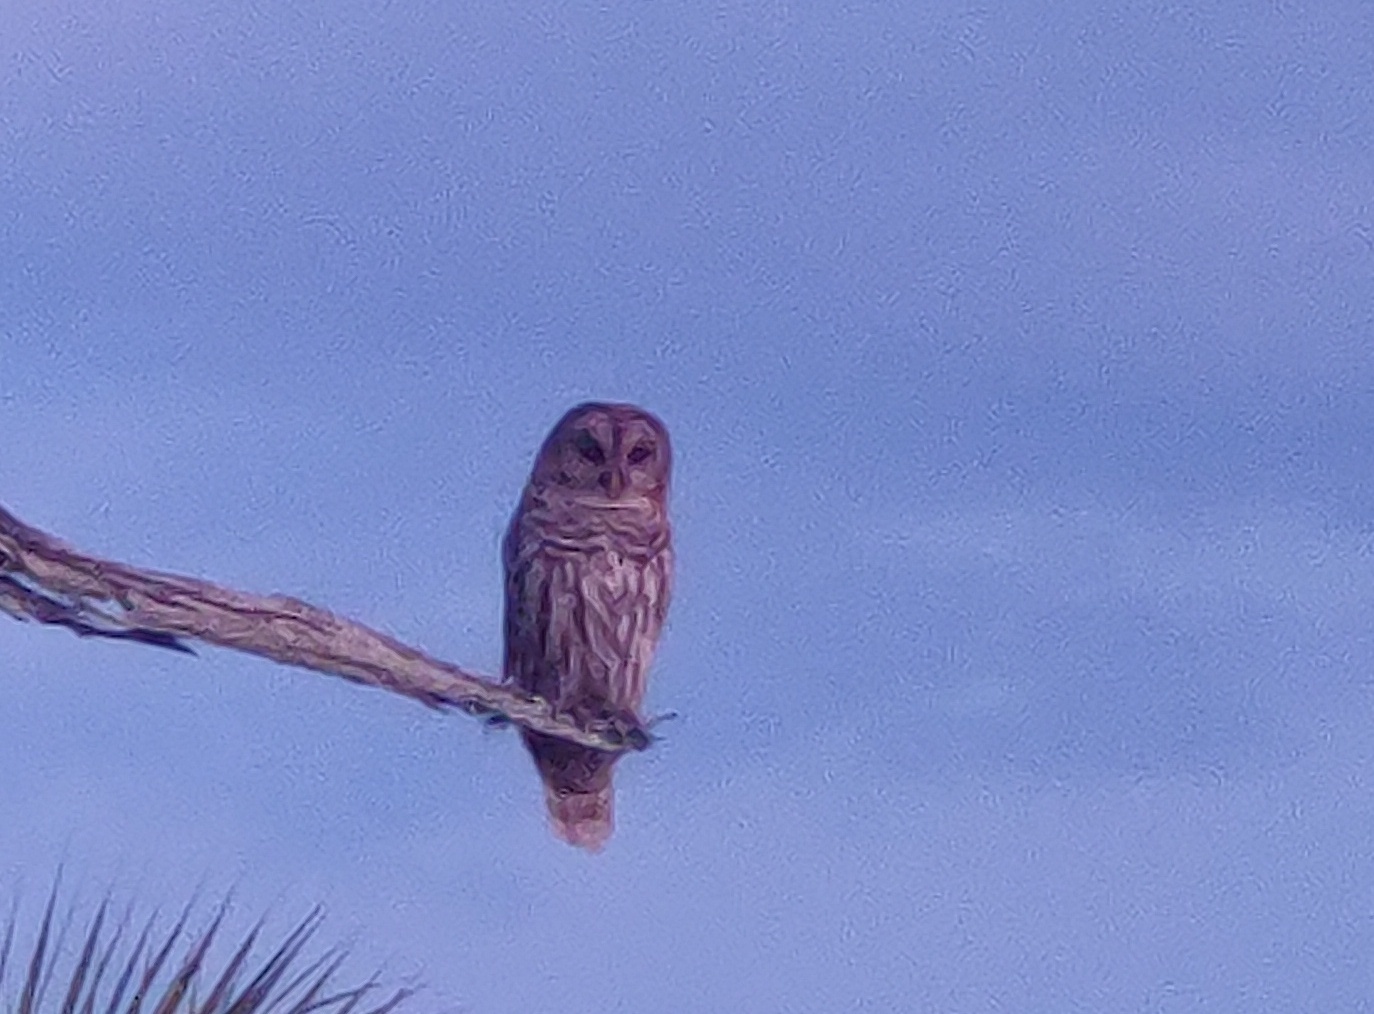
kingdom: Animalia
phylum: Chordata
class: Aves
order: Strigiformes
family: Strigidae
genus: Strix
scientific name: Strix varia
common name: Barred owl
